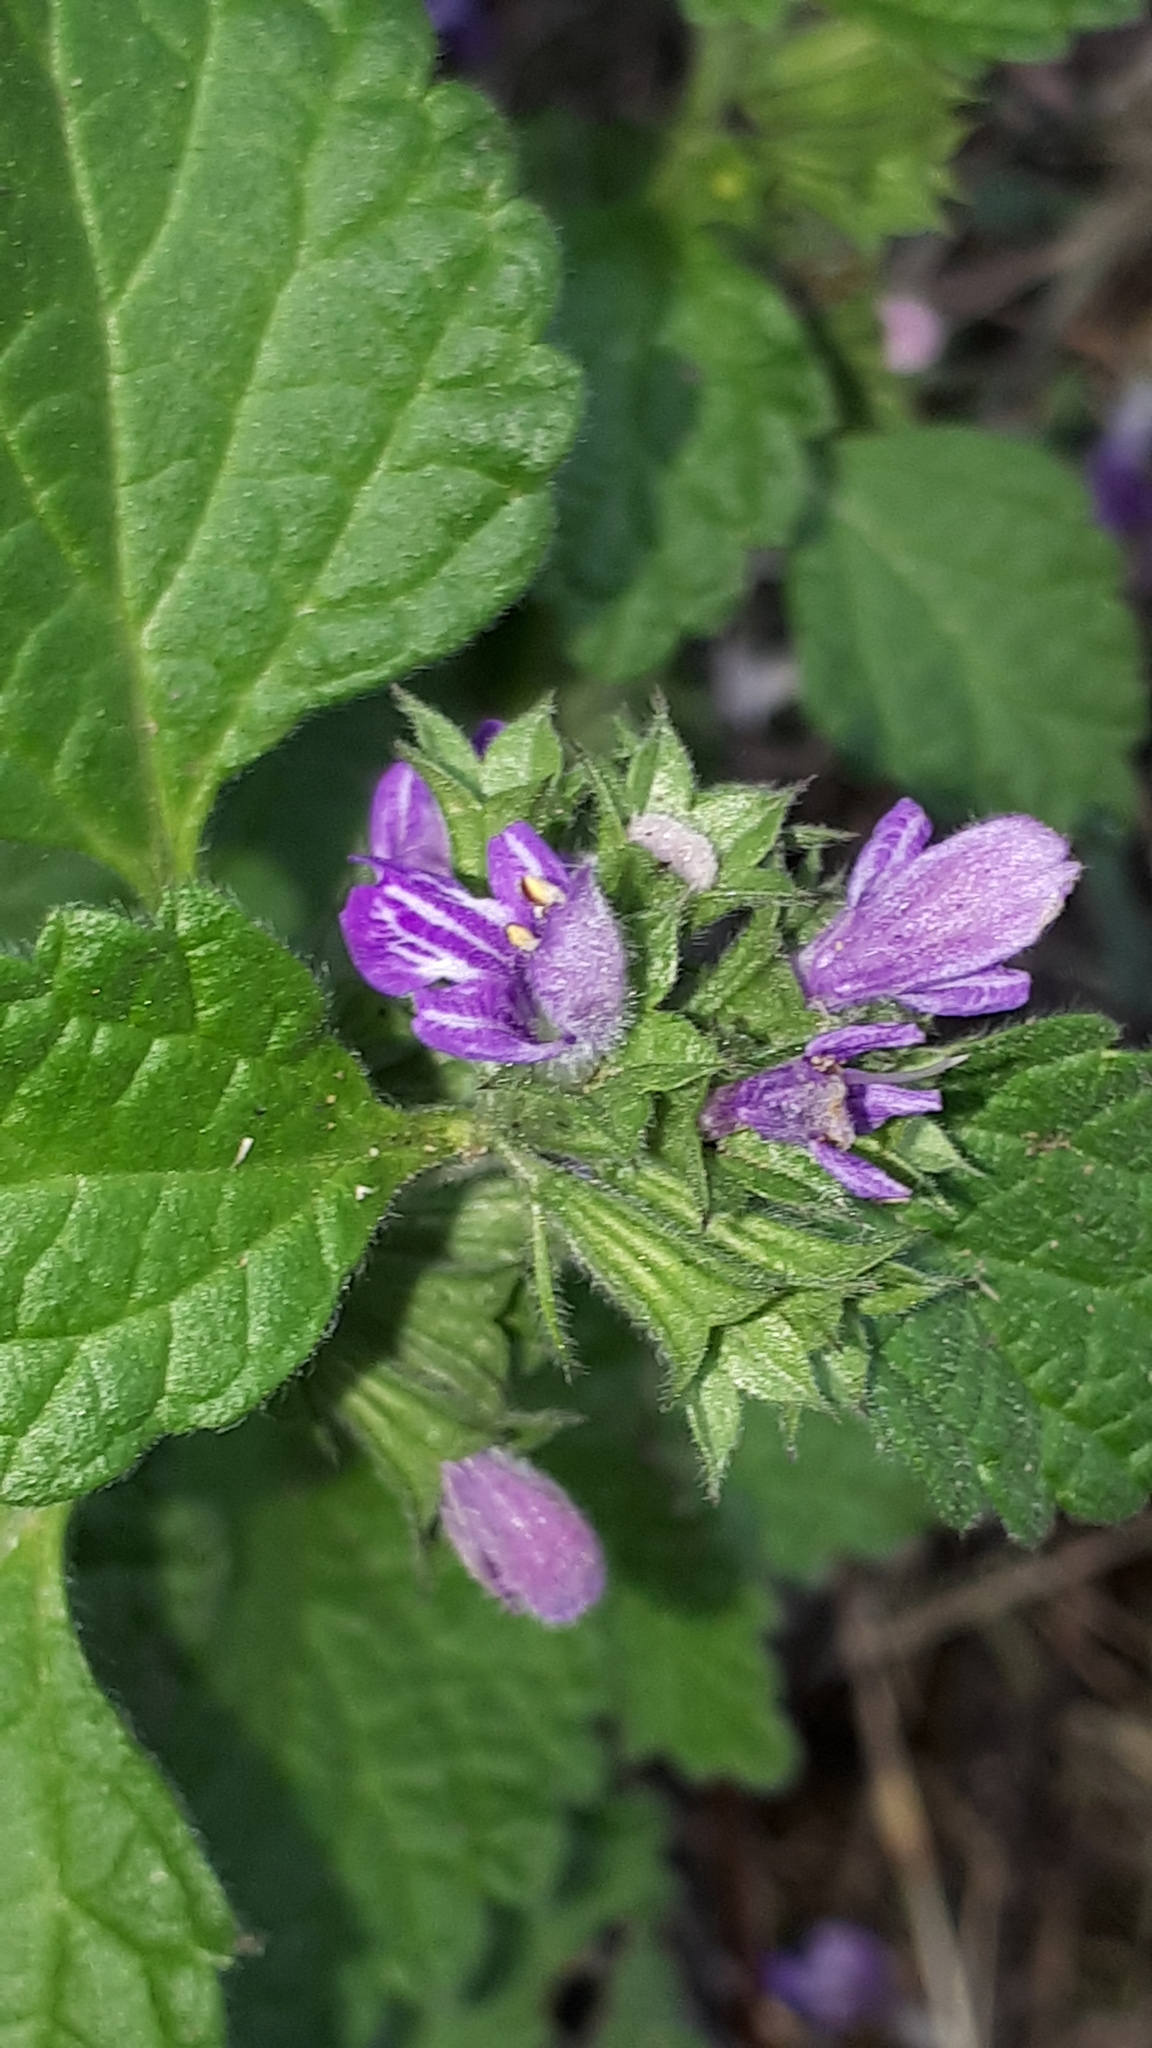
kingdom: Plantae
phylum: Tracheophyta
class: Magnoliopsida
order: Lamiales
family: Lamiaceae
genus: Ballota
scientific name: Ballota nigra
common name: Black horehound
